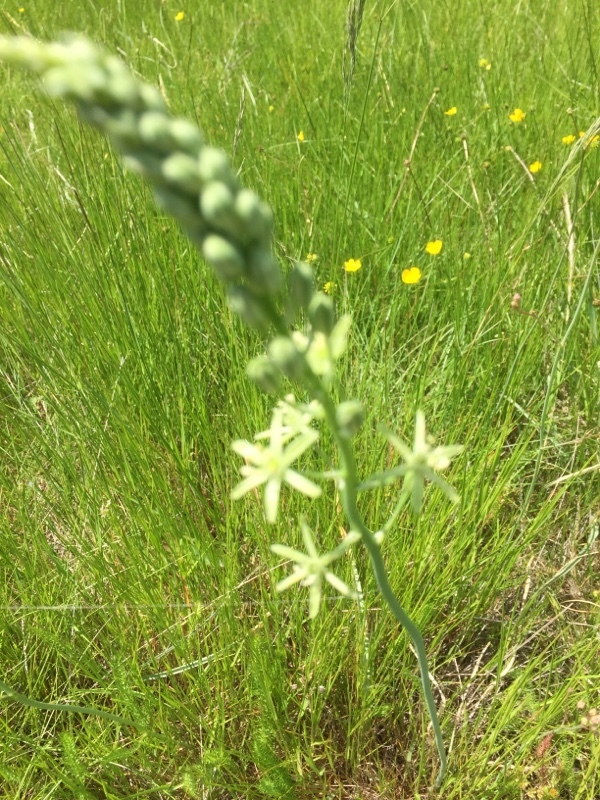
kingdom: Plantae
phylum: Tracheophyta
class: Liliopsida
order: Asparagales
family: Asparagaceae
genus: Ornithogalum
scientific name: Ornithogalum pyrenaicum
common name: Spiked star-of-bethlehem
